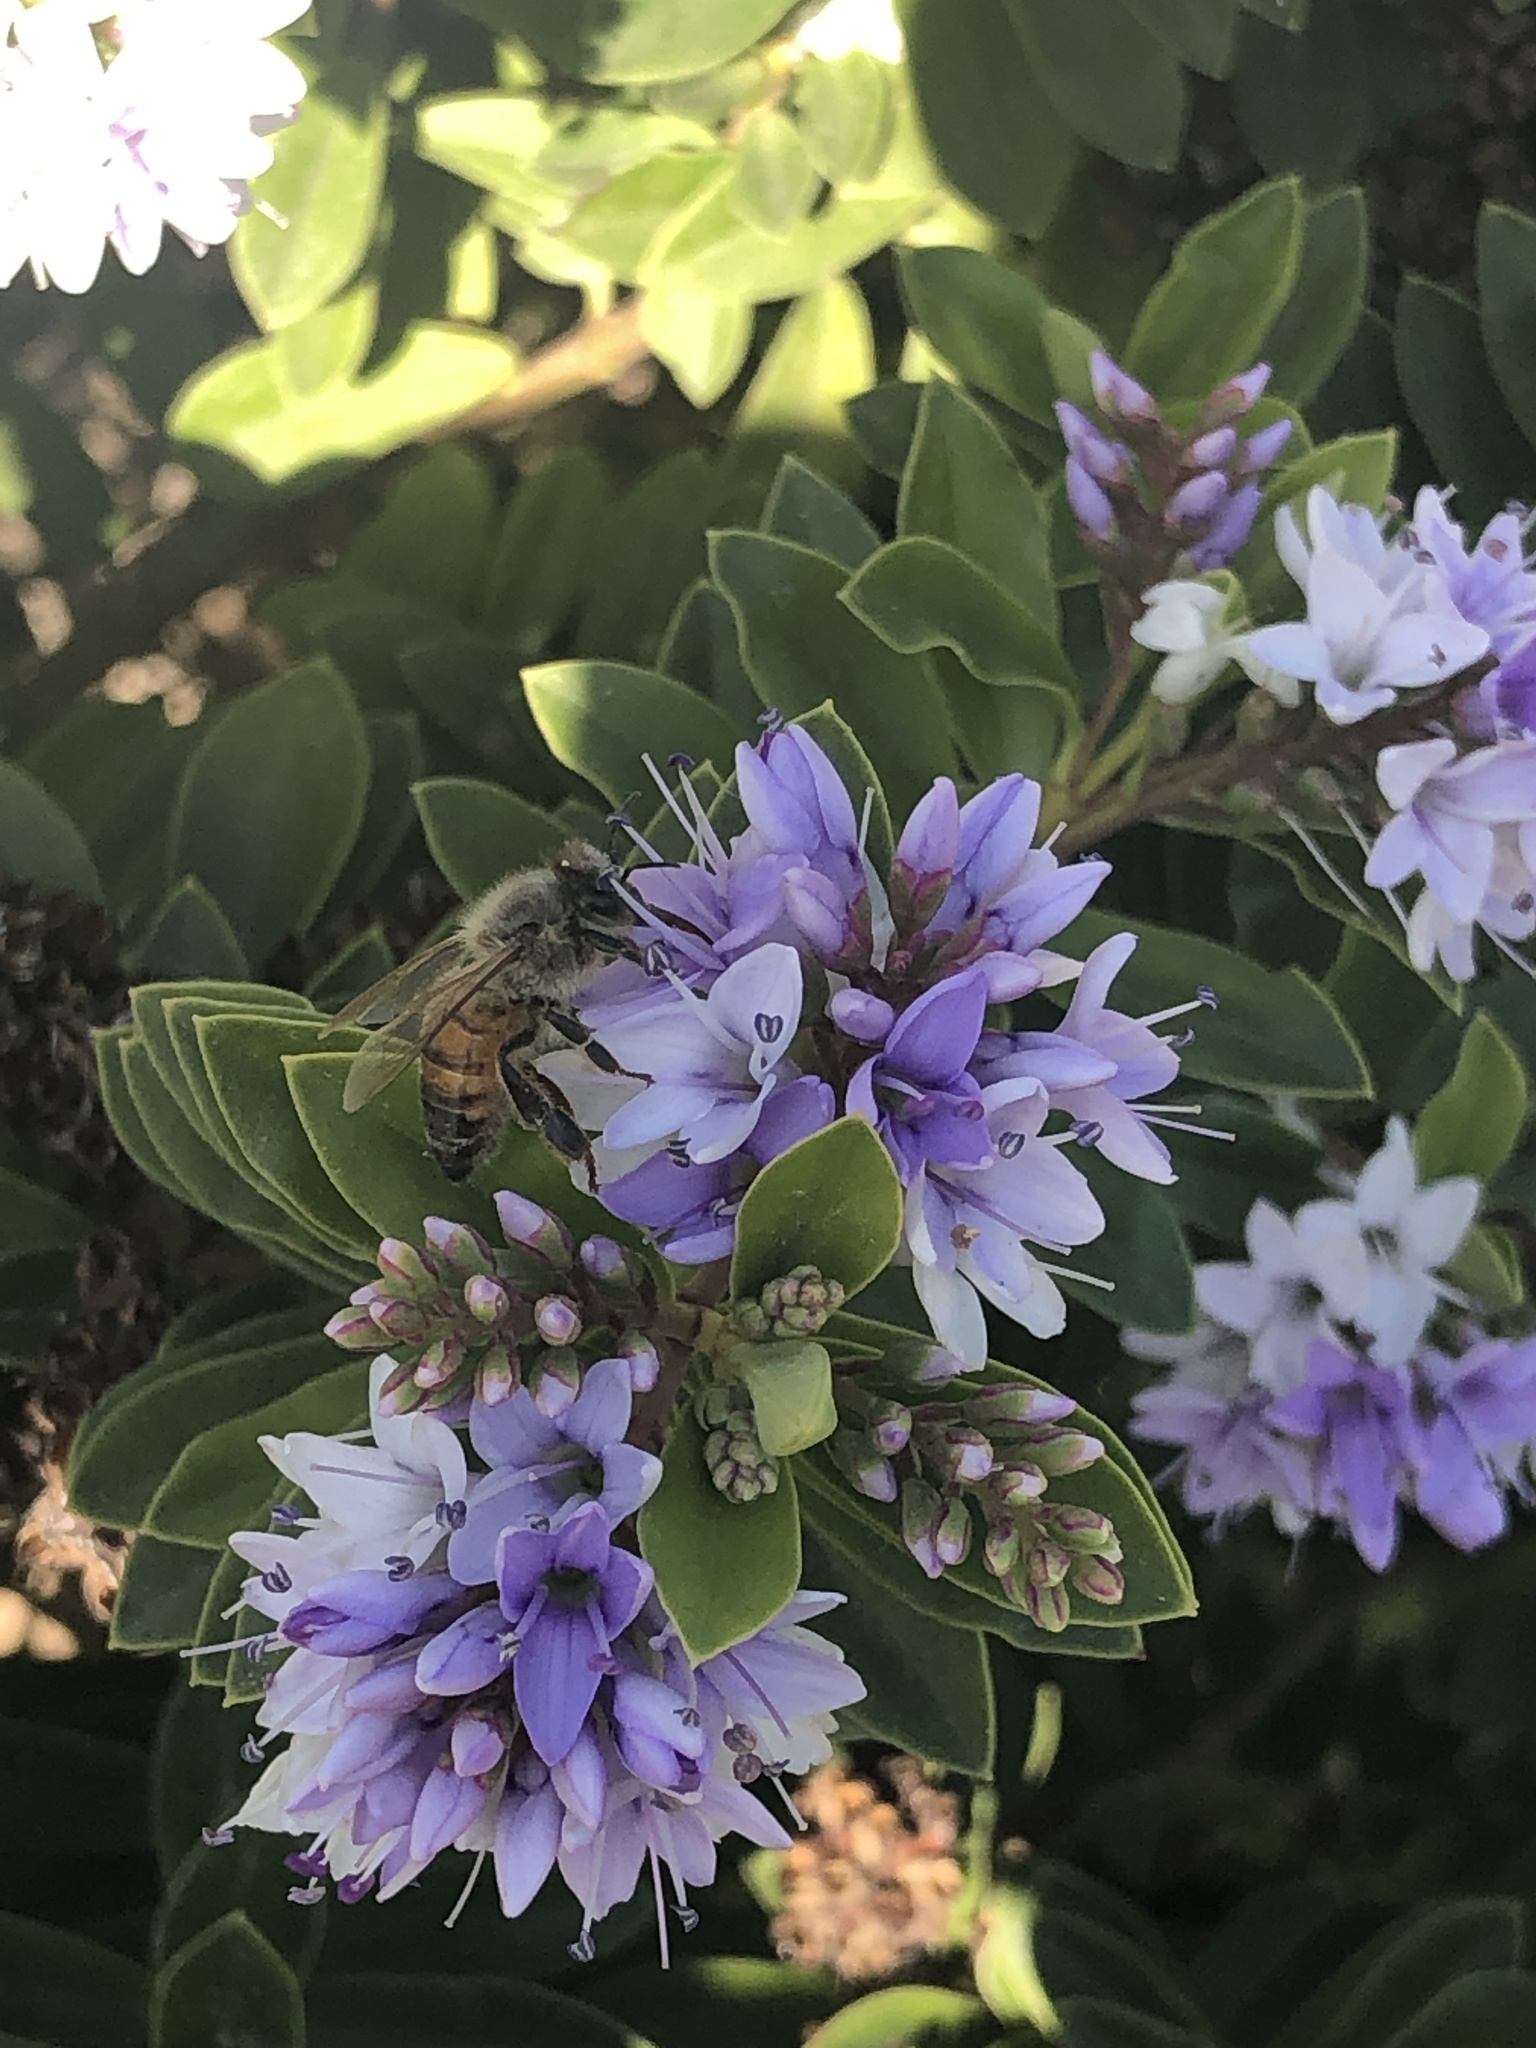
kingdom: Animalia
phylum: Arthropoda
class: Insecta
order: Hymenoptera
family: Apidae
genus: Apis
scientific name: Apis mellifera
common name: Honey bee
